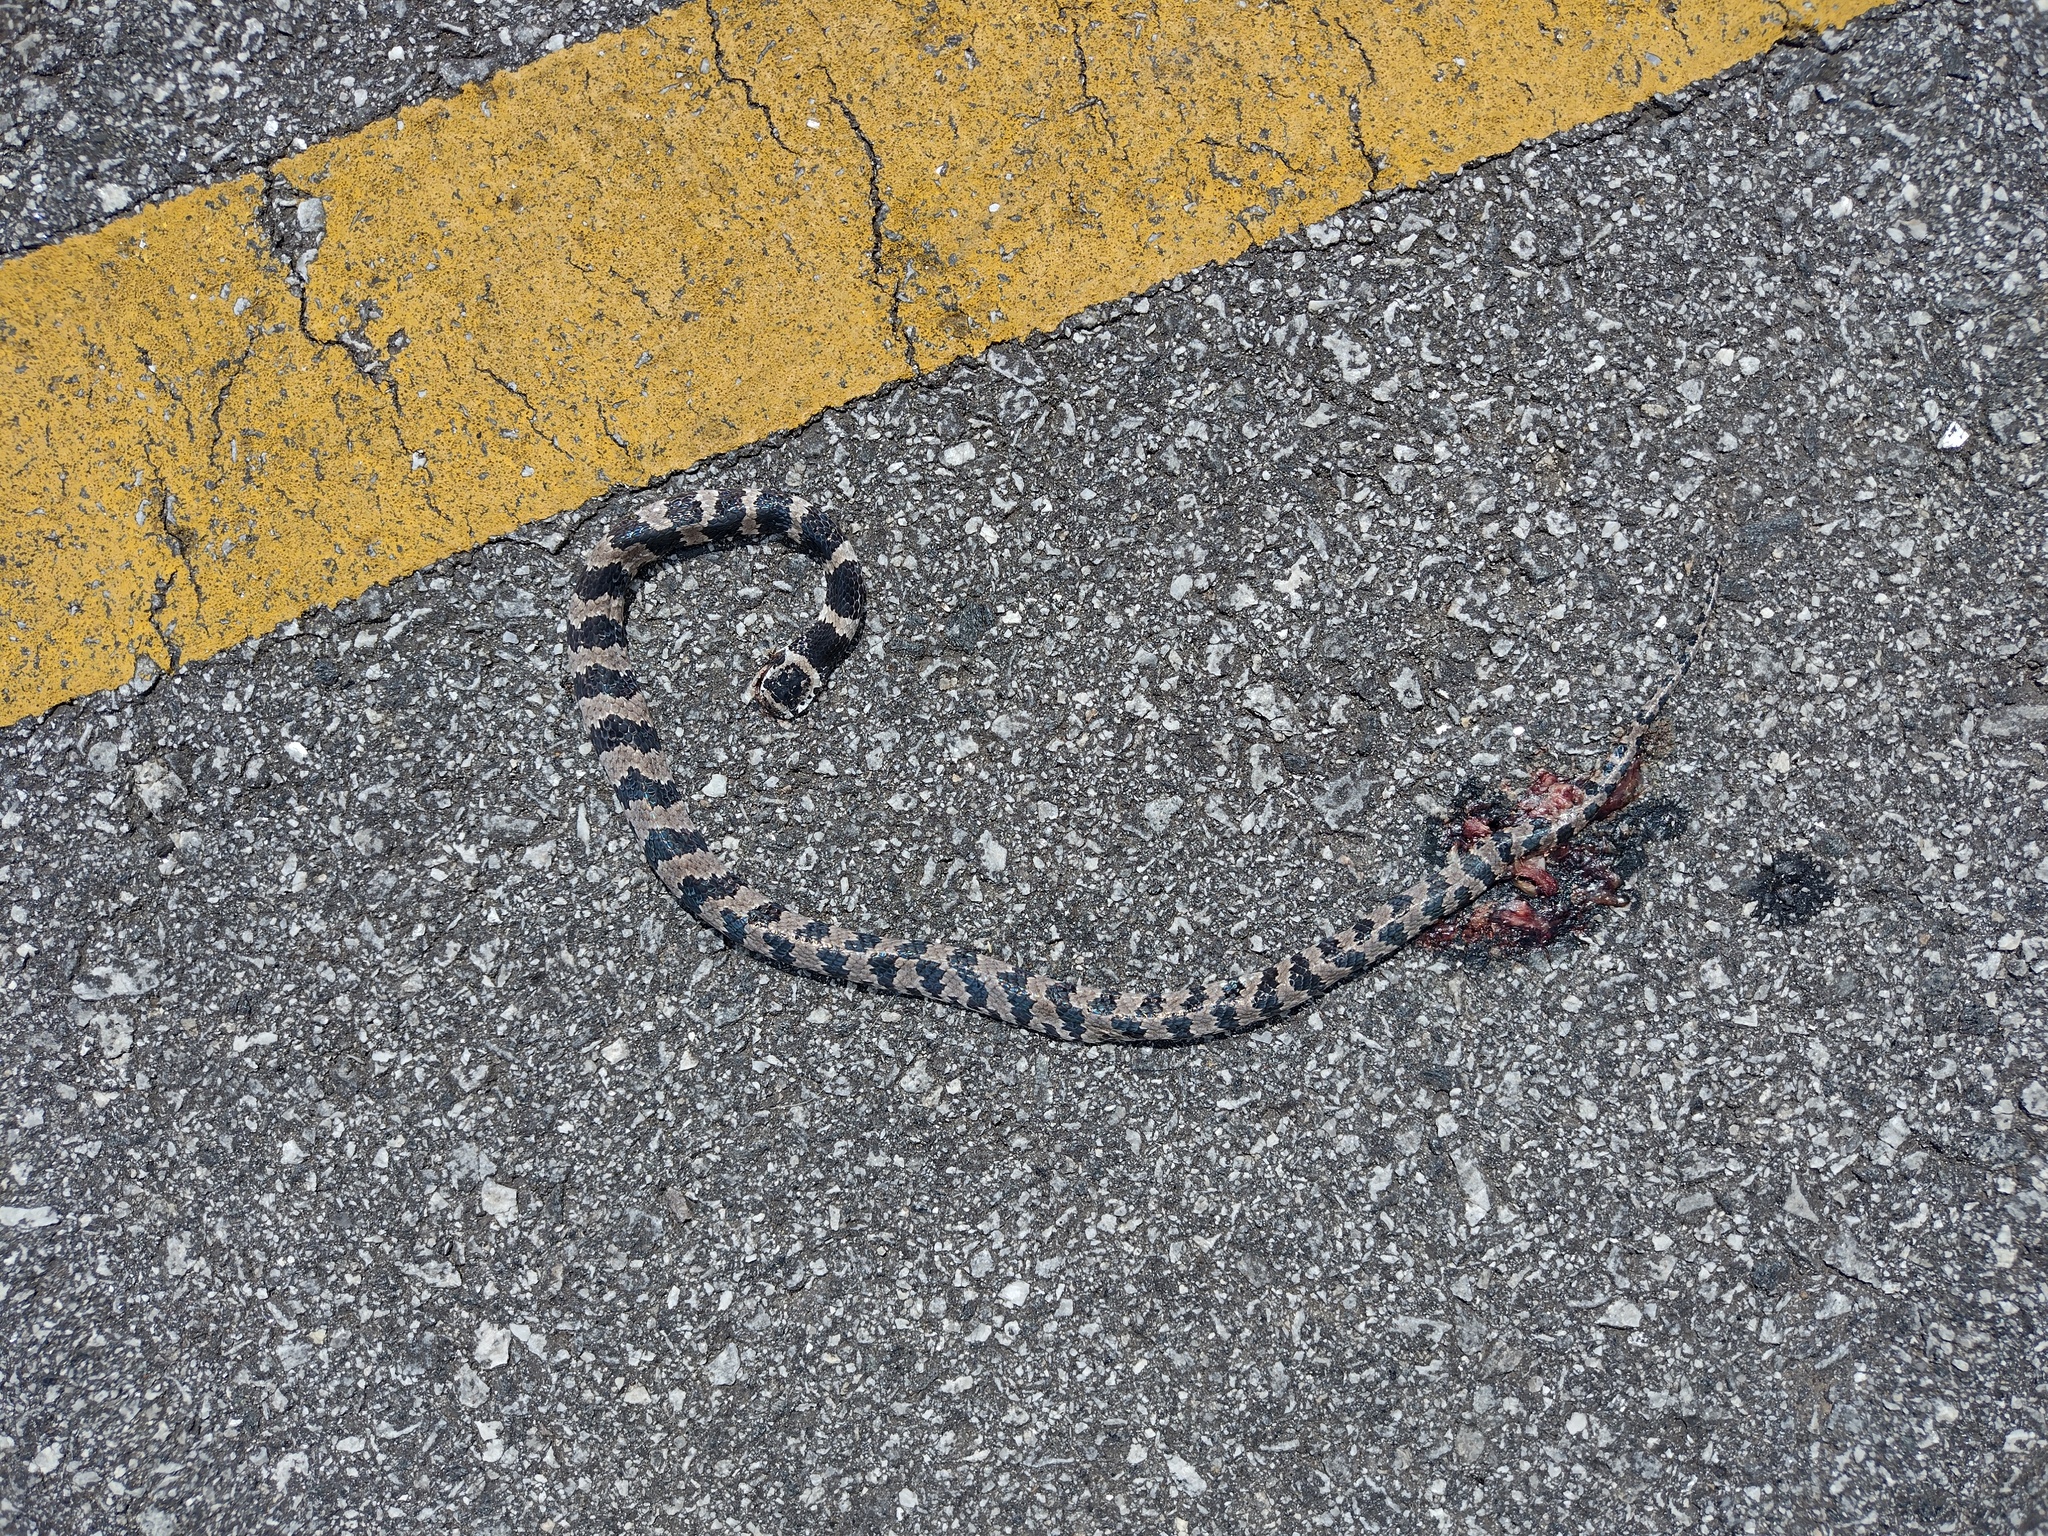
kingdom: Animalia
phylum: Chordata
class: Squamata
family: Colubridae
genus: Dipsas
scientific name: Dipsas mikanii
